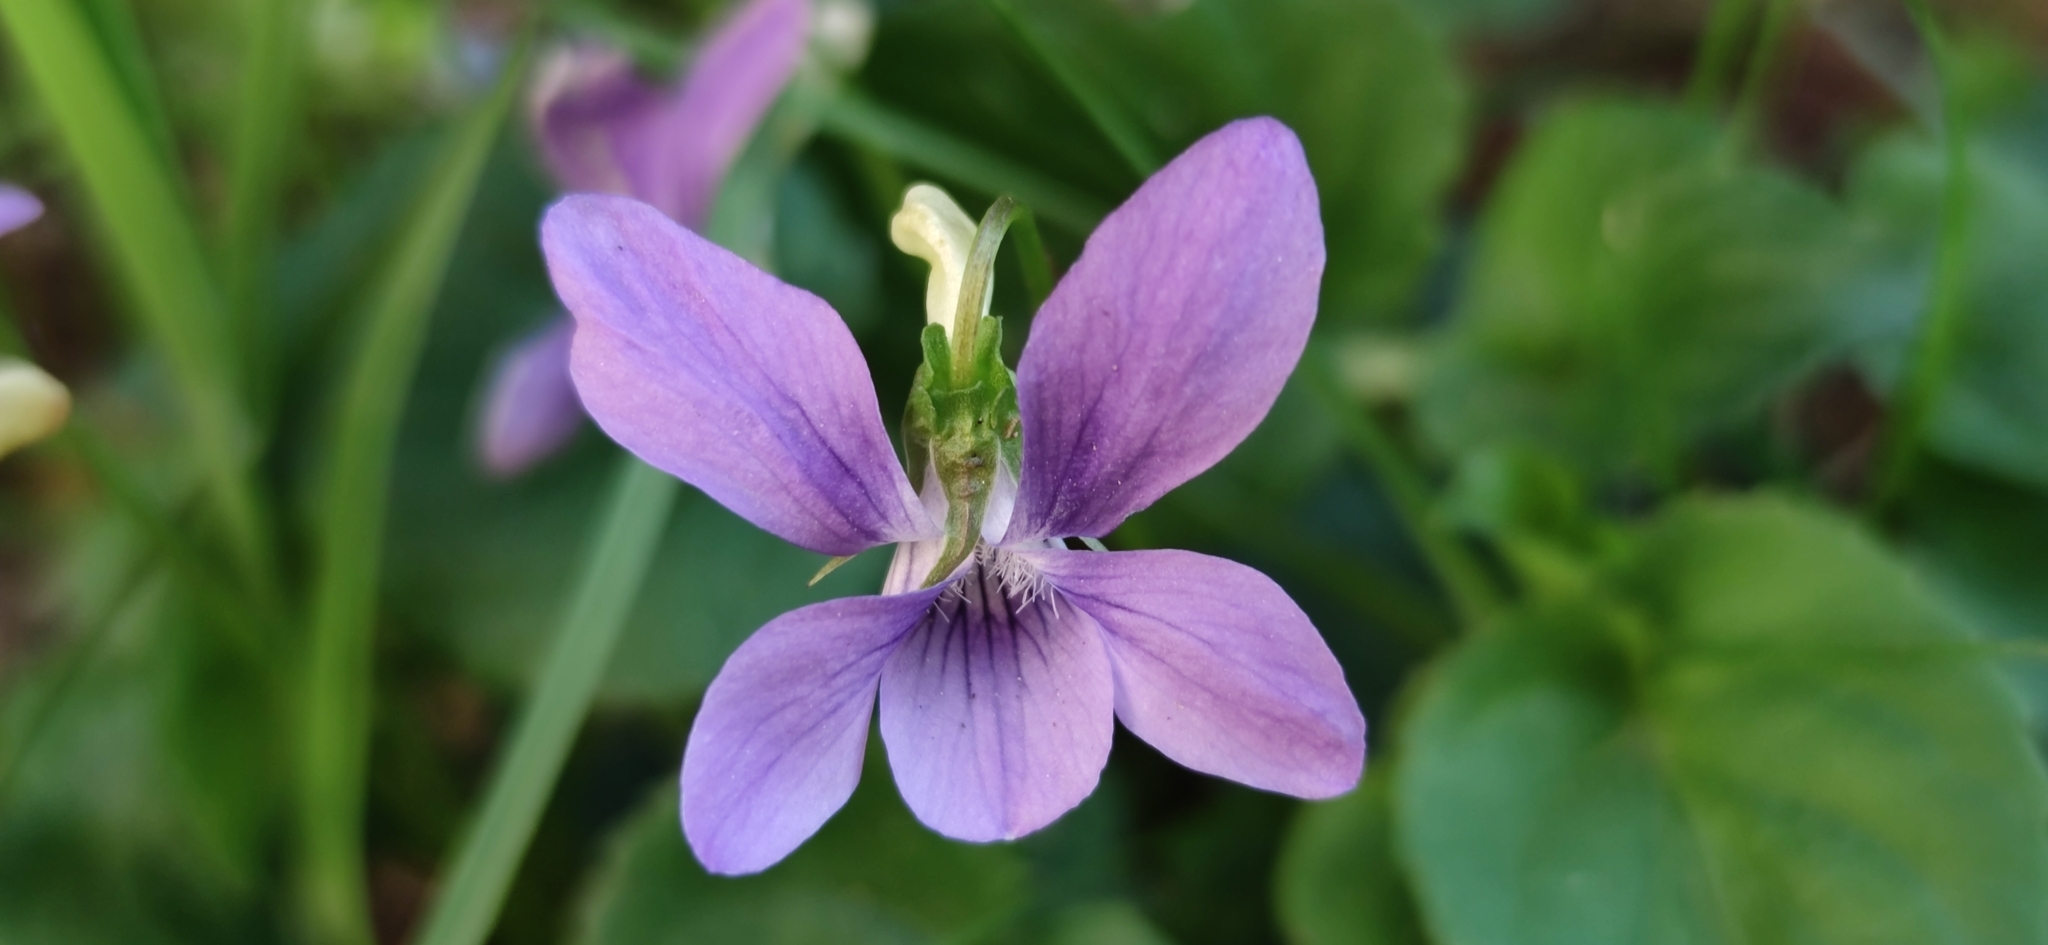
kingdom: Plantae
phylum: Tracheophyta
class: Magnoliopsida
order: Malpighiales
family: Violaceae
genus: Viola
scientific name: Viola riviniana
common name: Common dog-violet
